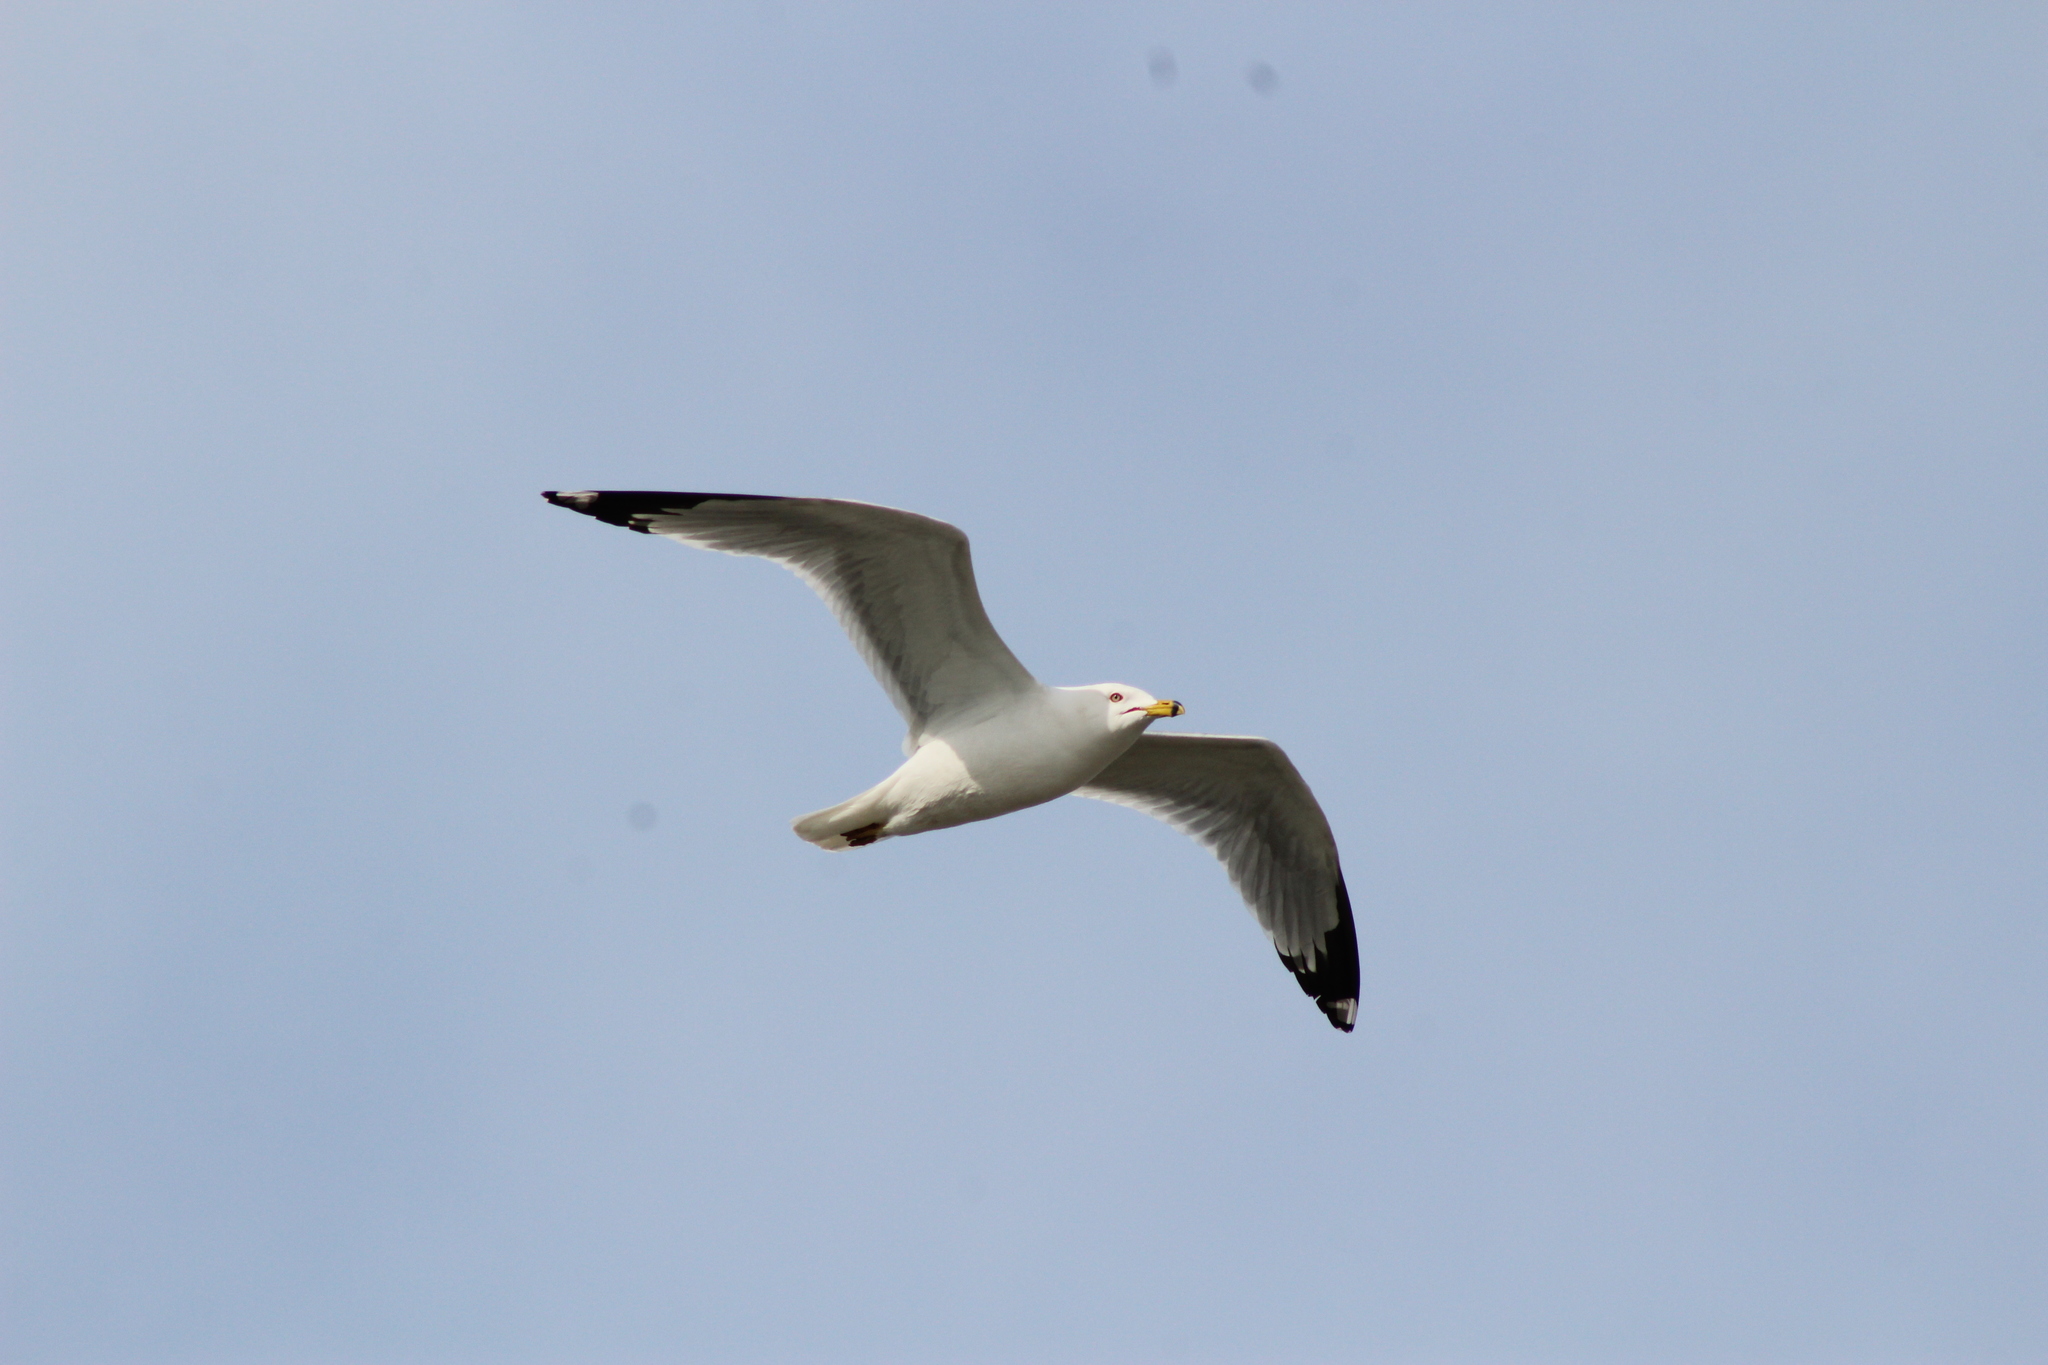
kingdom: Animalia
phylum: Chordata
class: Aves
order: Charadriiformes
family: Laridae
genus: Larus
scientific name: Larus delawarensis
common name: Ring-billed gull
